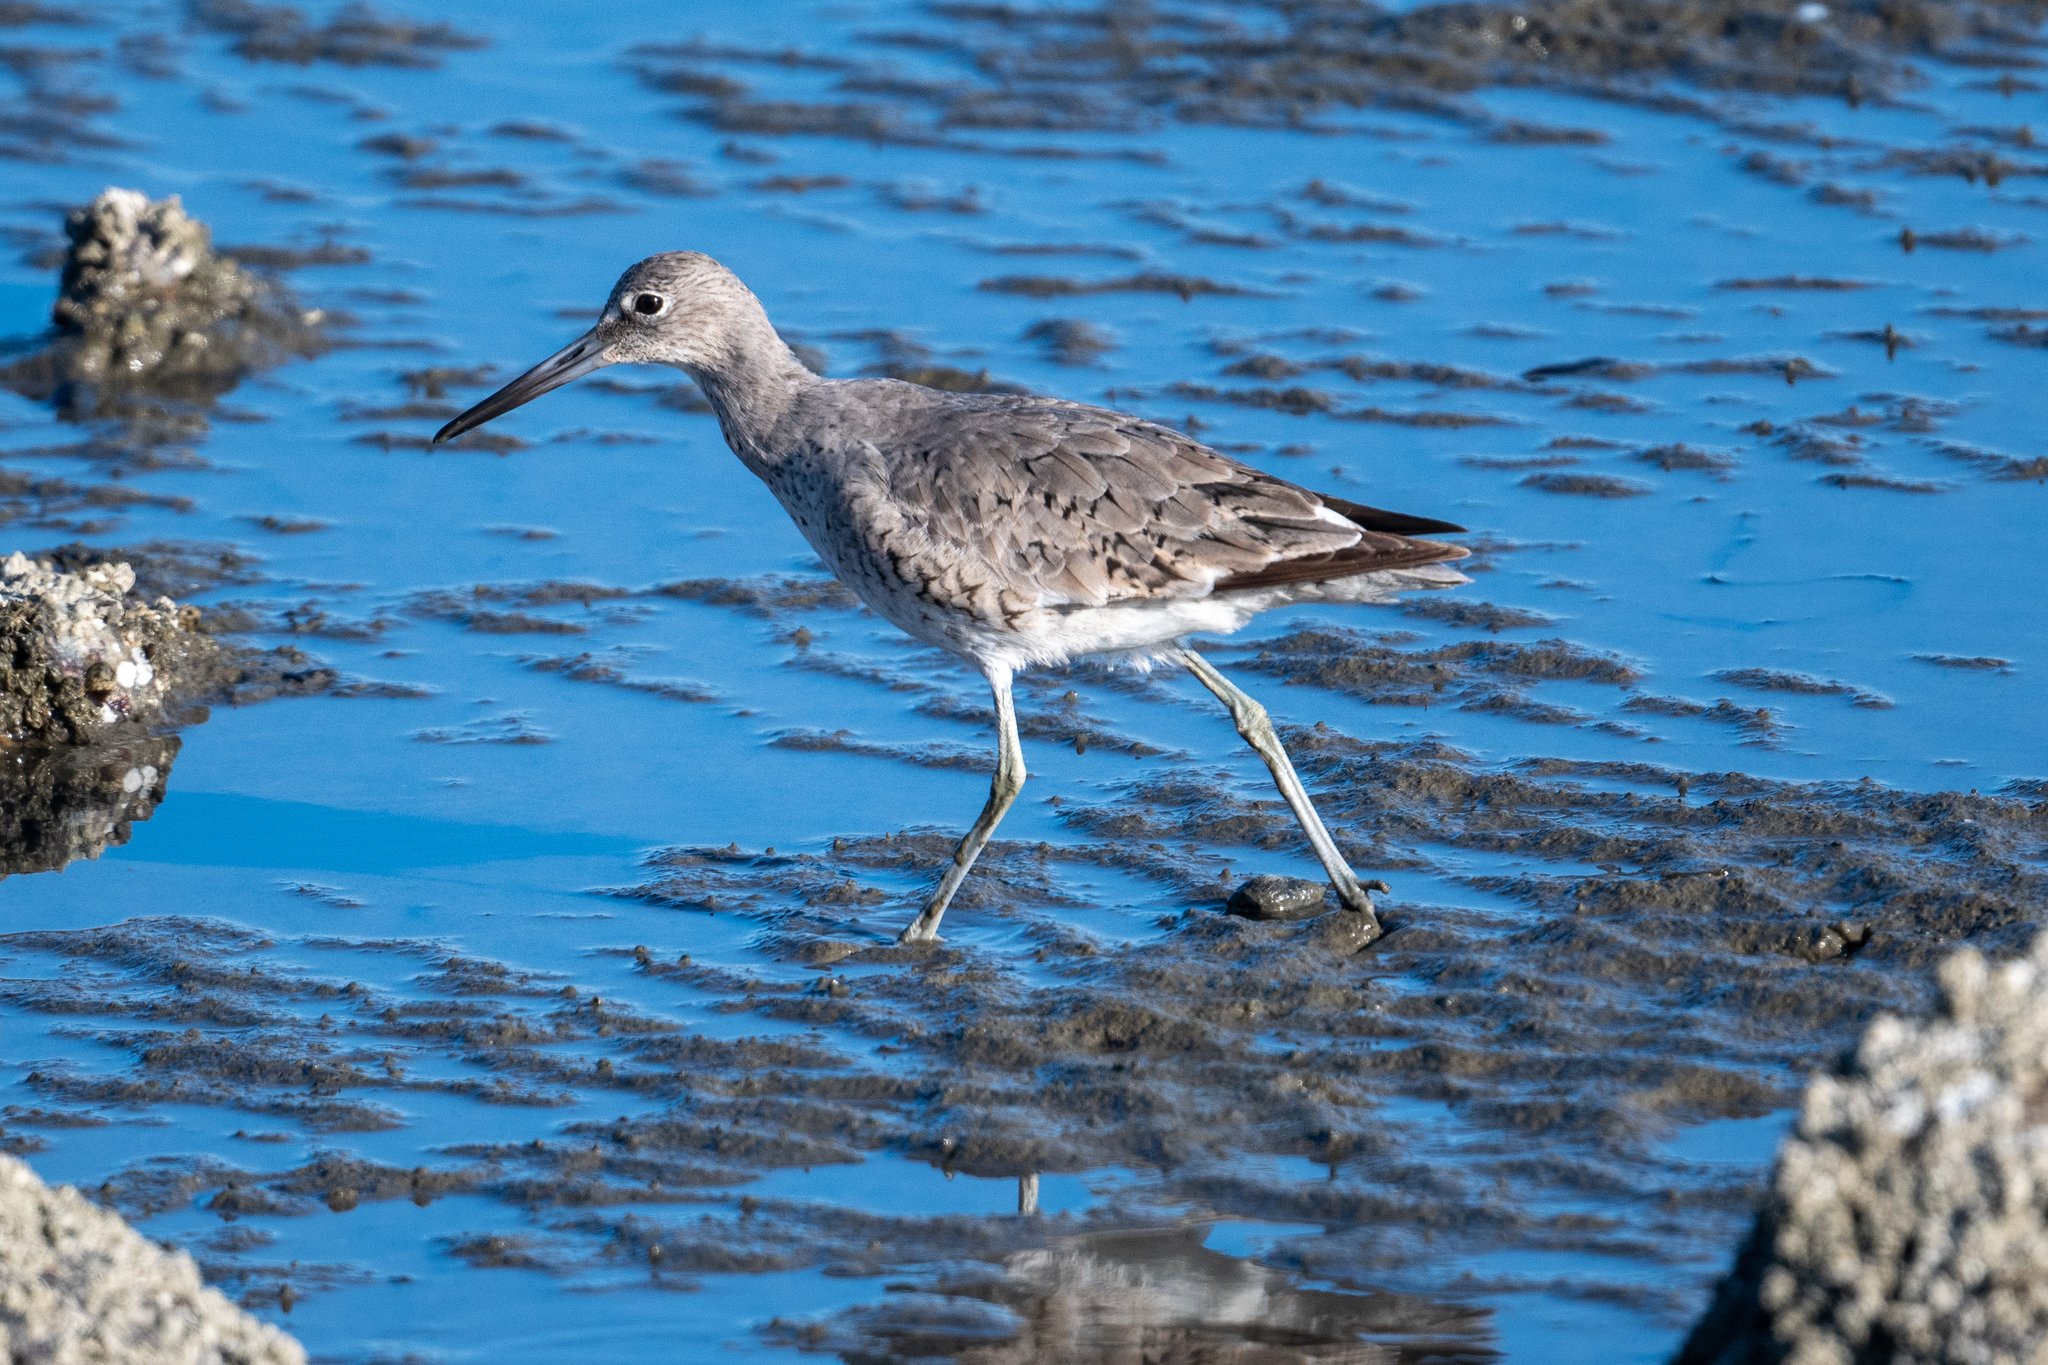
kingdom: Animalia
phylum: Chordata
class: Aves
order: Charadriiformes
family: Scolopacidae
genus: Tringa
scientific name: Tringa semipalmata
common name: Willet
